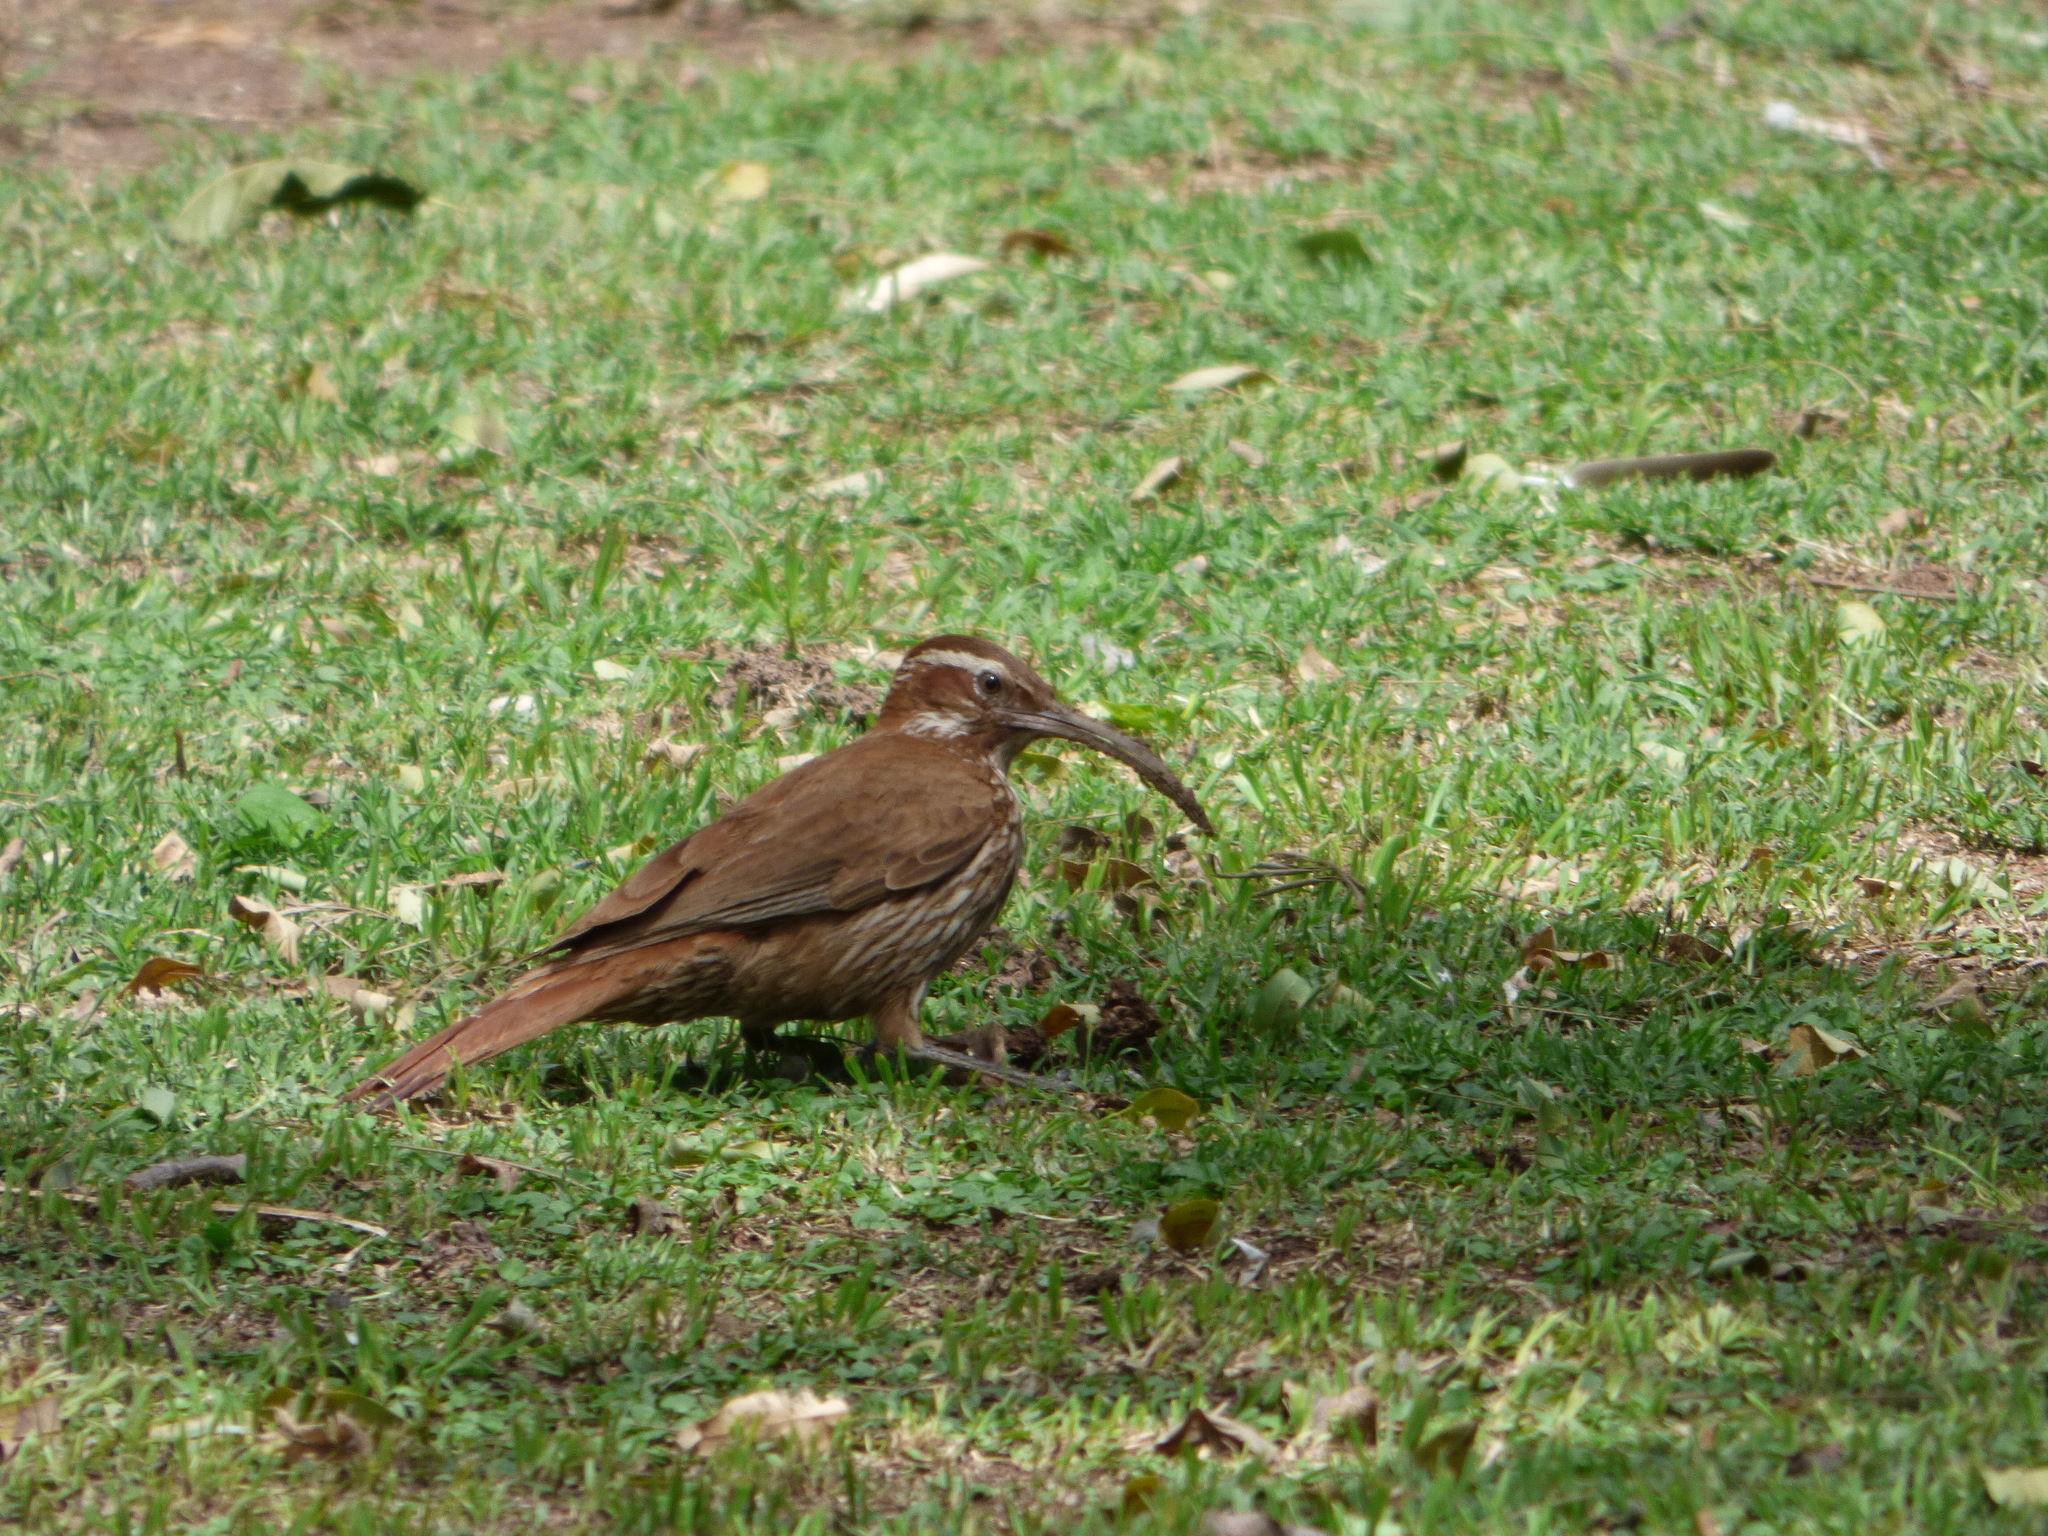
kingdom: Animalia
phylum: Chordata
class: Aves
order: Passeriformes
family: Furnariidae
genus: Drymornis
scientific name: Drymornis bridgesii
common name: Scimitar-billed woodcreeper
